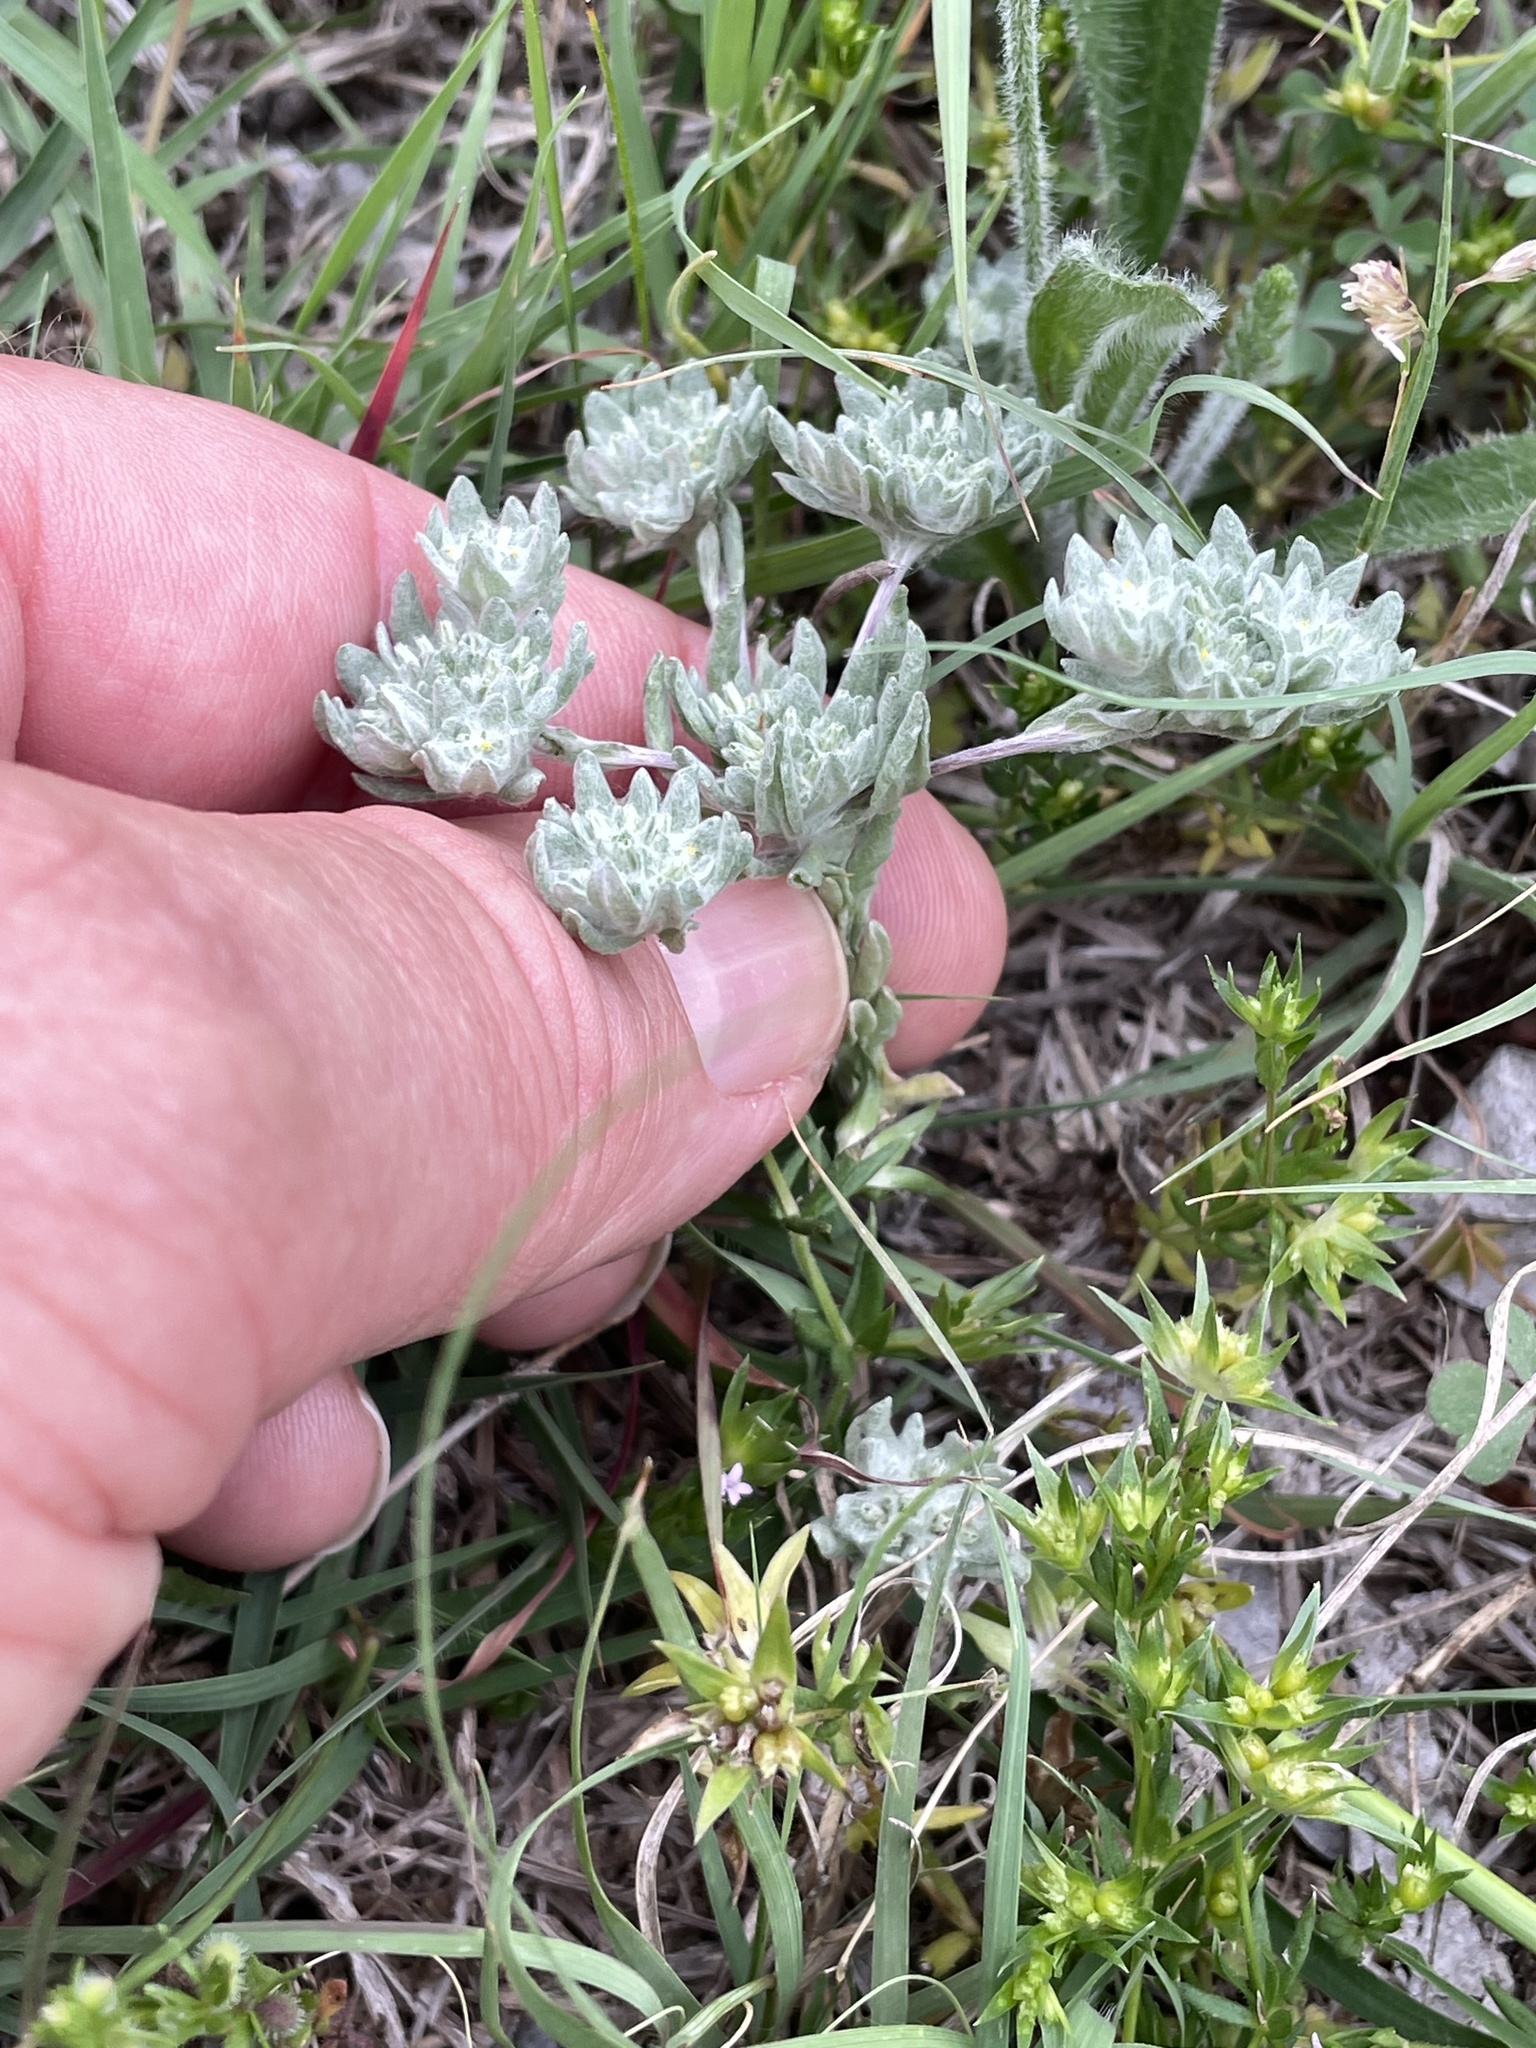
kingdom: Plantae
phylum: Tracheophyta
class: Magnoliopsida
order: Asterales
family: Asteraceae
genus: Diaperia
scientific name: Diaperia prolifera
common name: Big-head rabbit-tobacco
